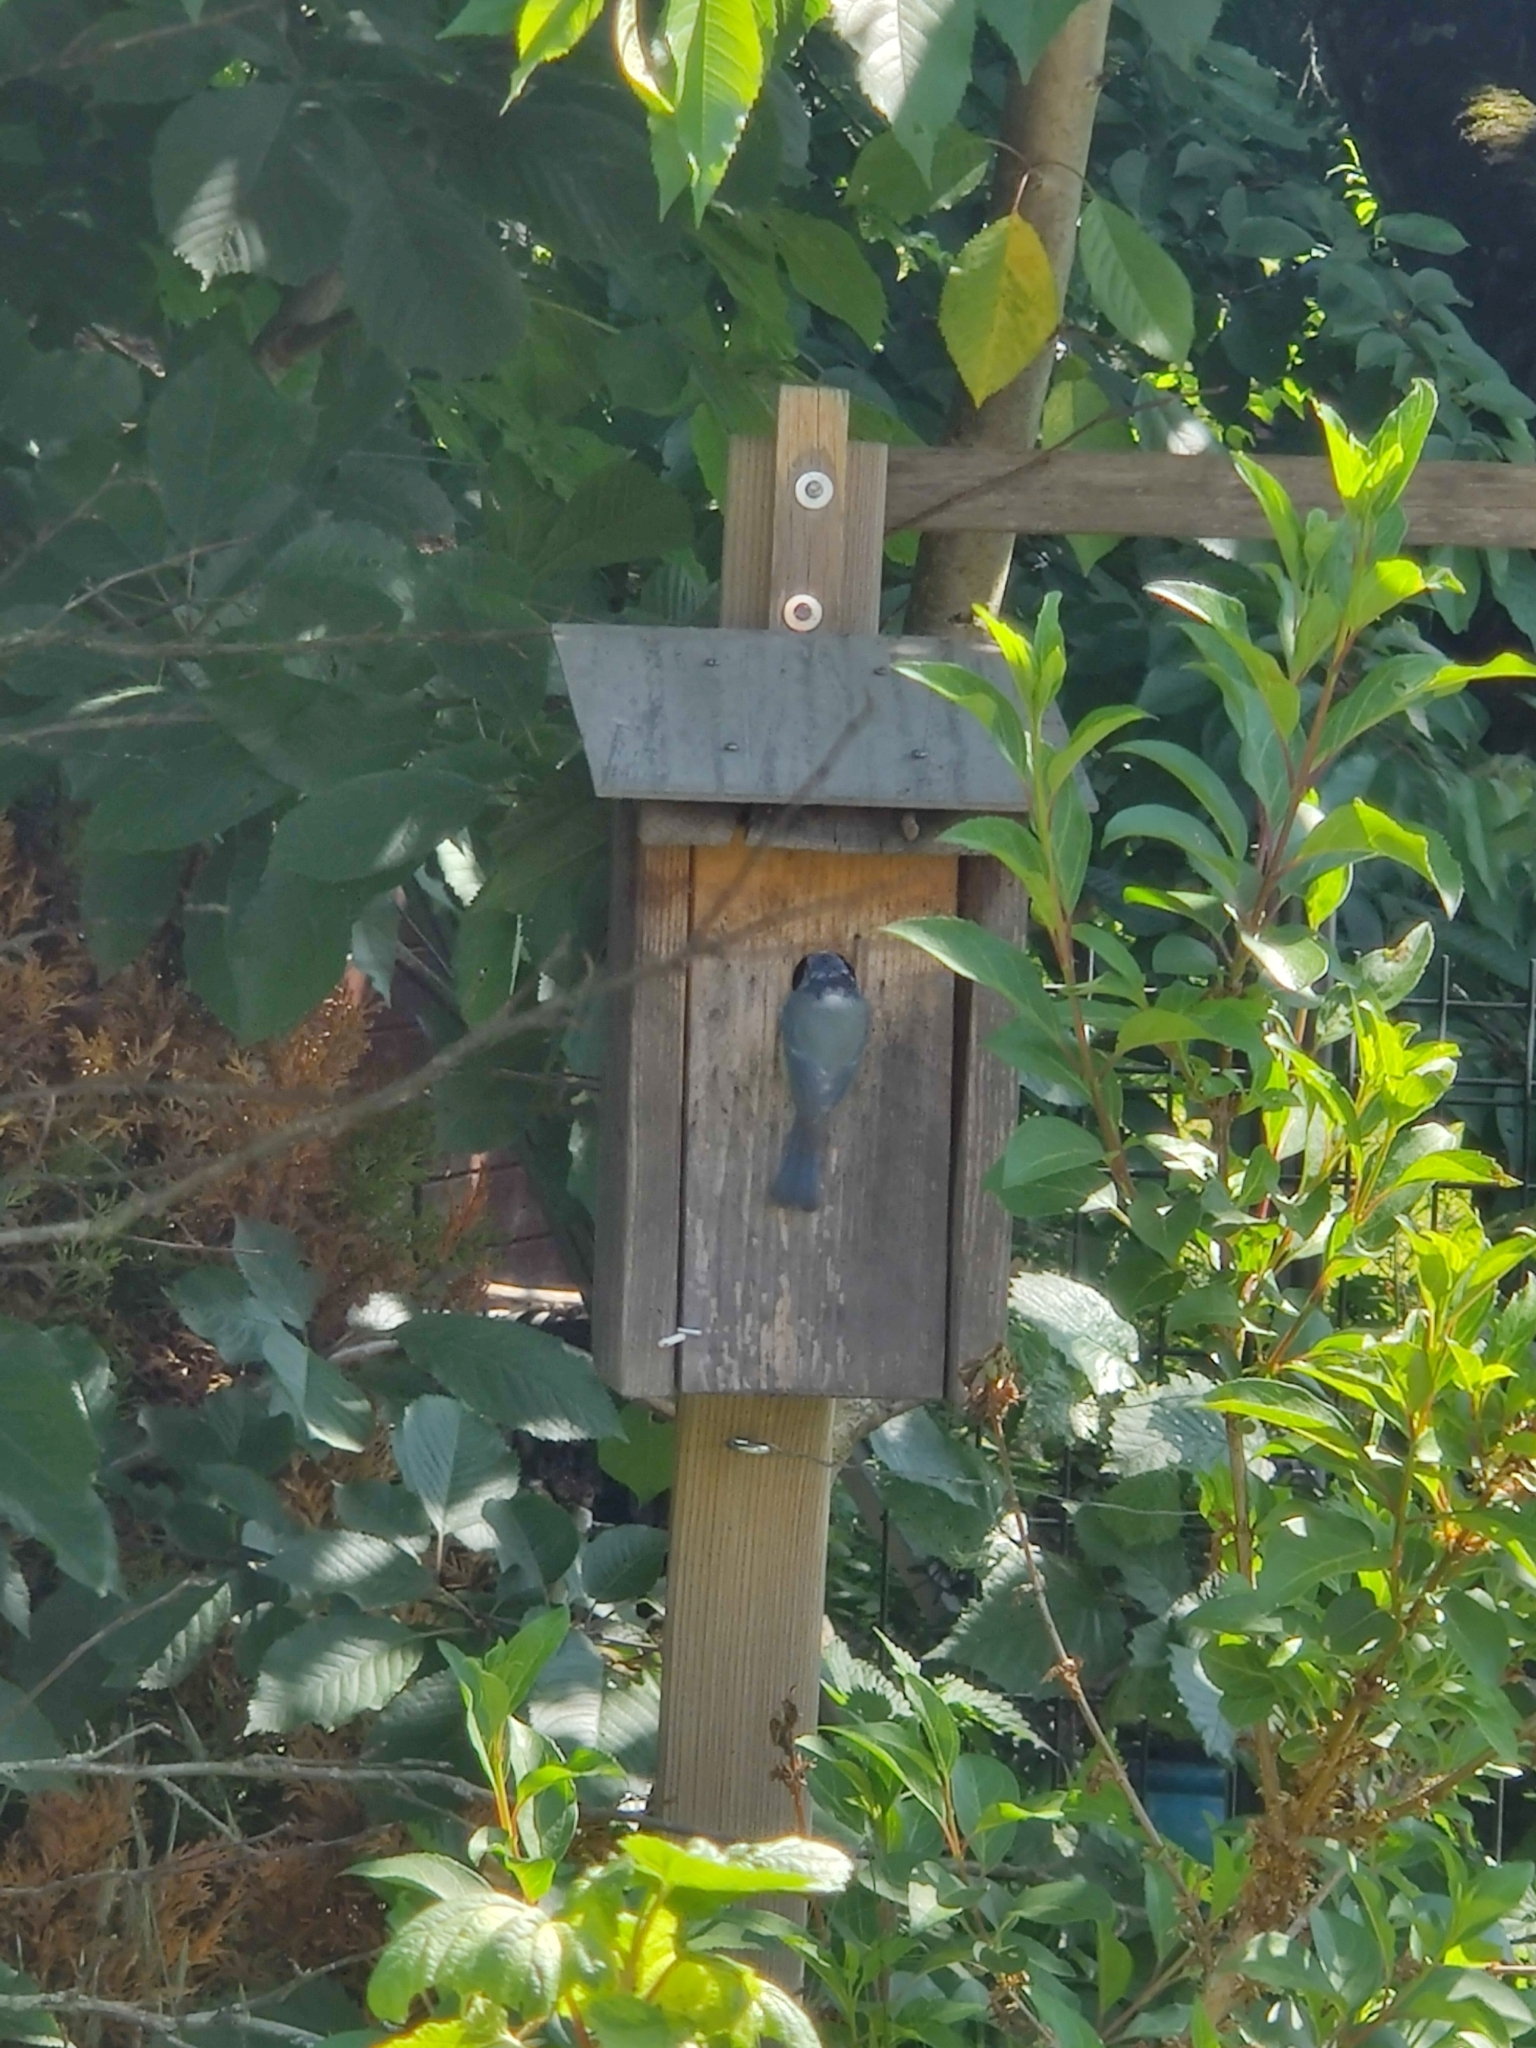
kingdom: Animalia
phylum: Chordata
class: Aves
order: Passeriformes
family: Paridae
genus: Cyanistes
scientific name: Cyanistes caeruleus
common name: Eurasian blue tit
